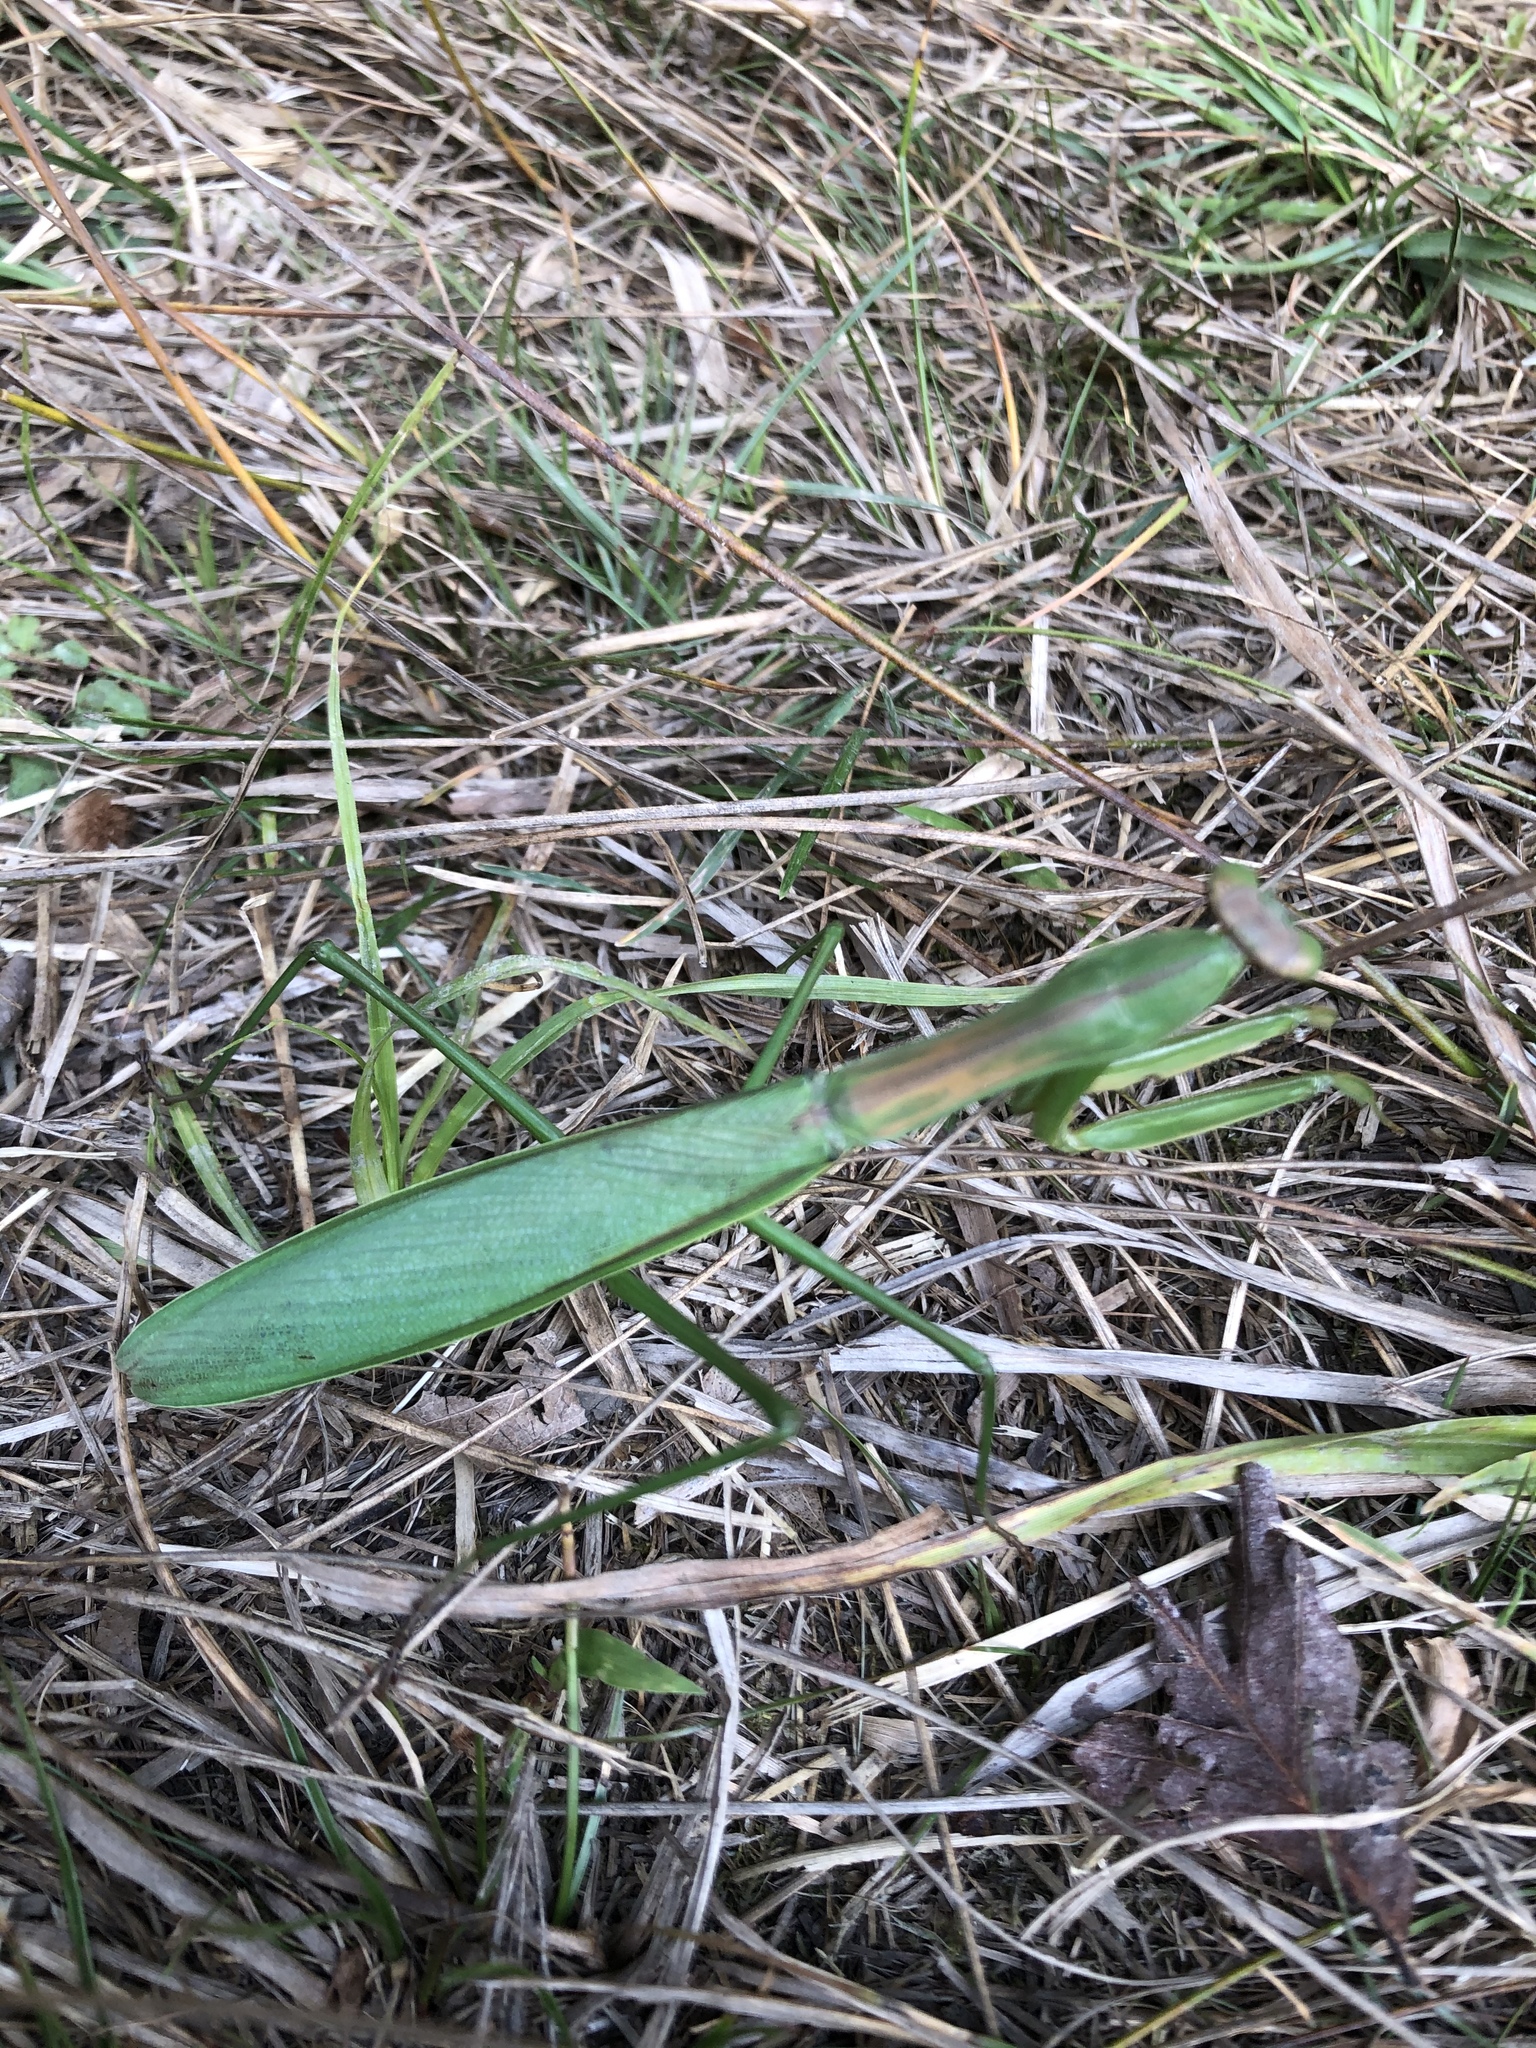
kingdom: Animalia
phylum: Arthropoda
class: Insecta
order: Mantodea
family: Mantidae
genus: Tenodera
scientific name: Tenodera sinensis
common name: Chinese mantis
